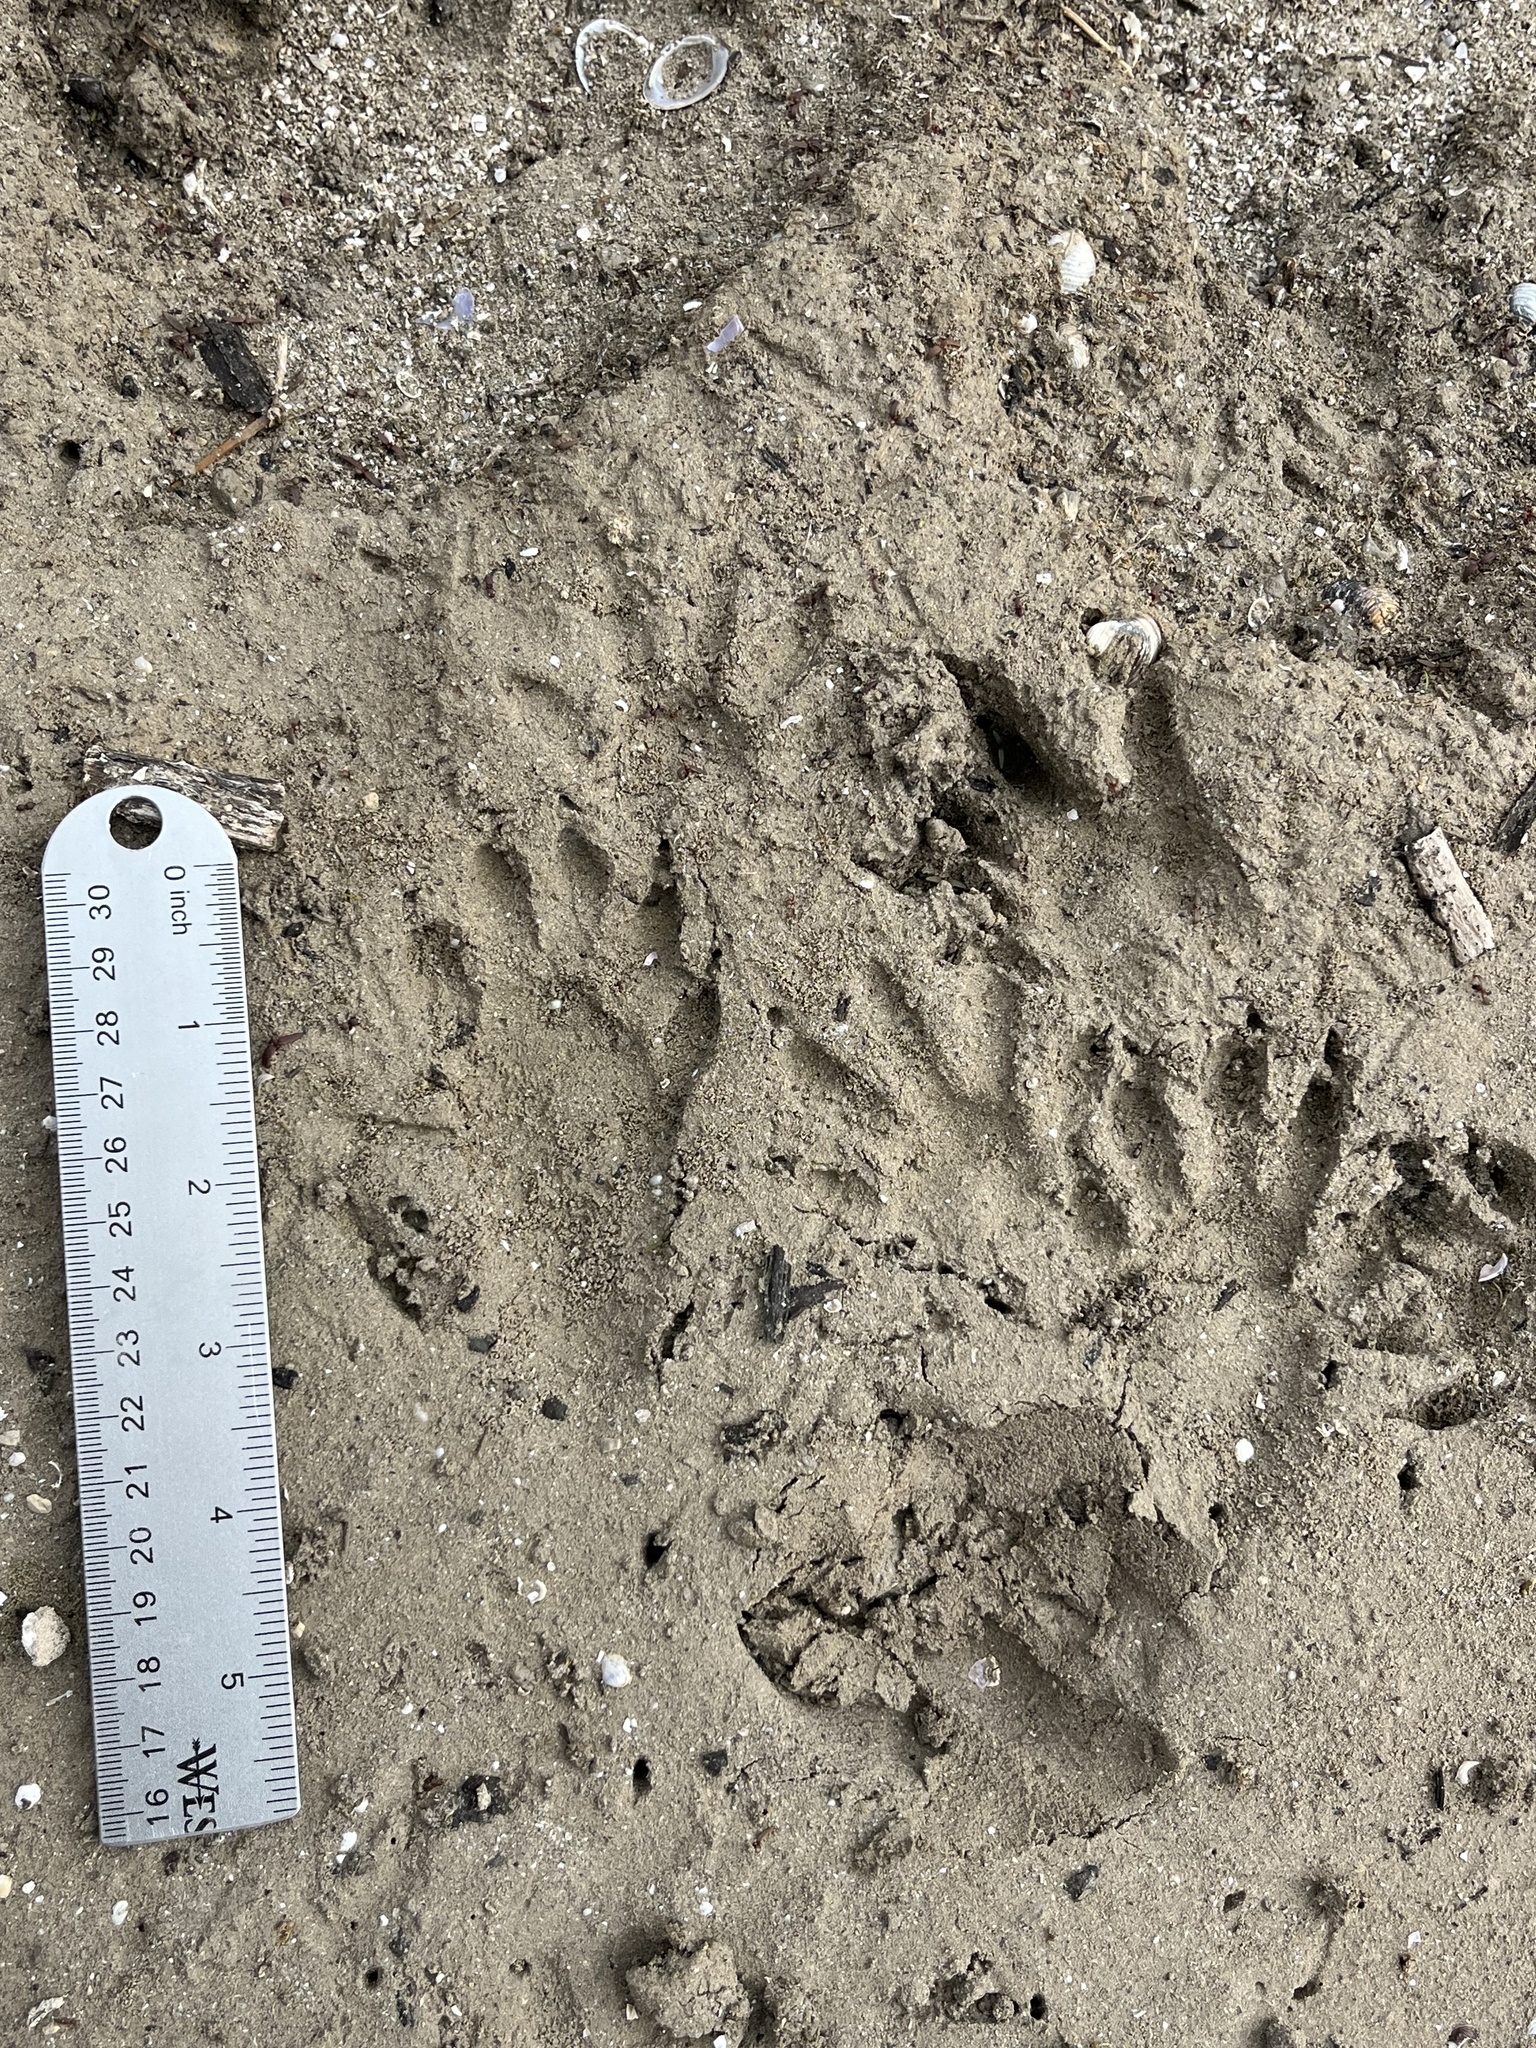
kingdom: Animalia
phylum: Chordata
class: Mammalia
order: Carnivora
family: Procyonidae
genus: Procyon
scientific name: Procyon lotor
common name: Raccoon
